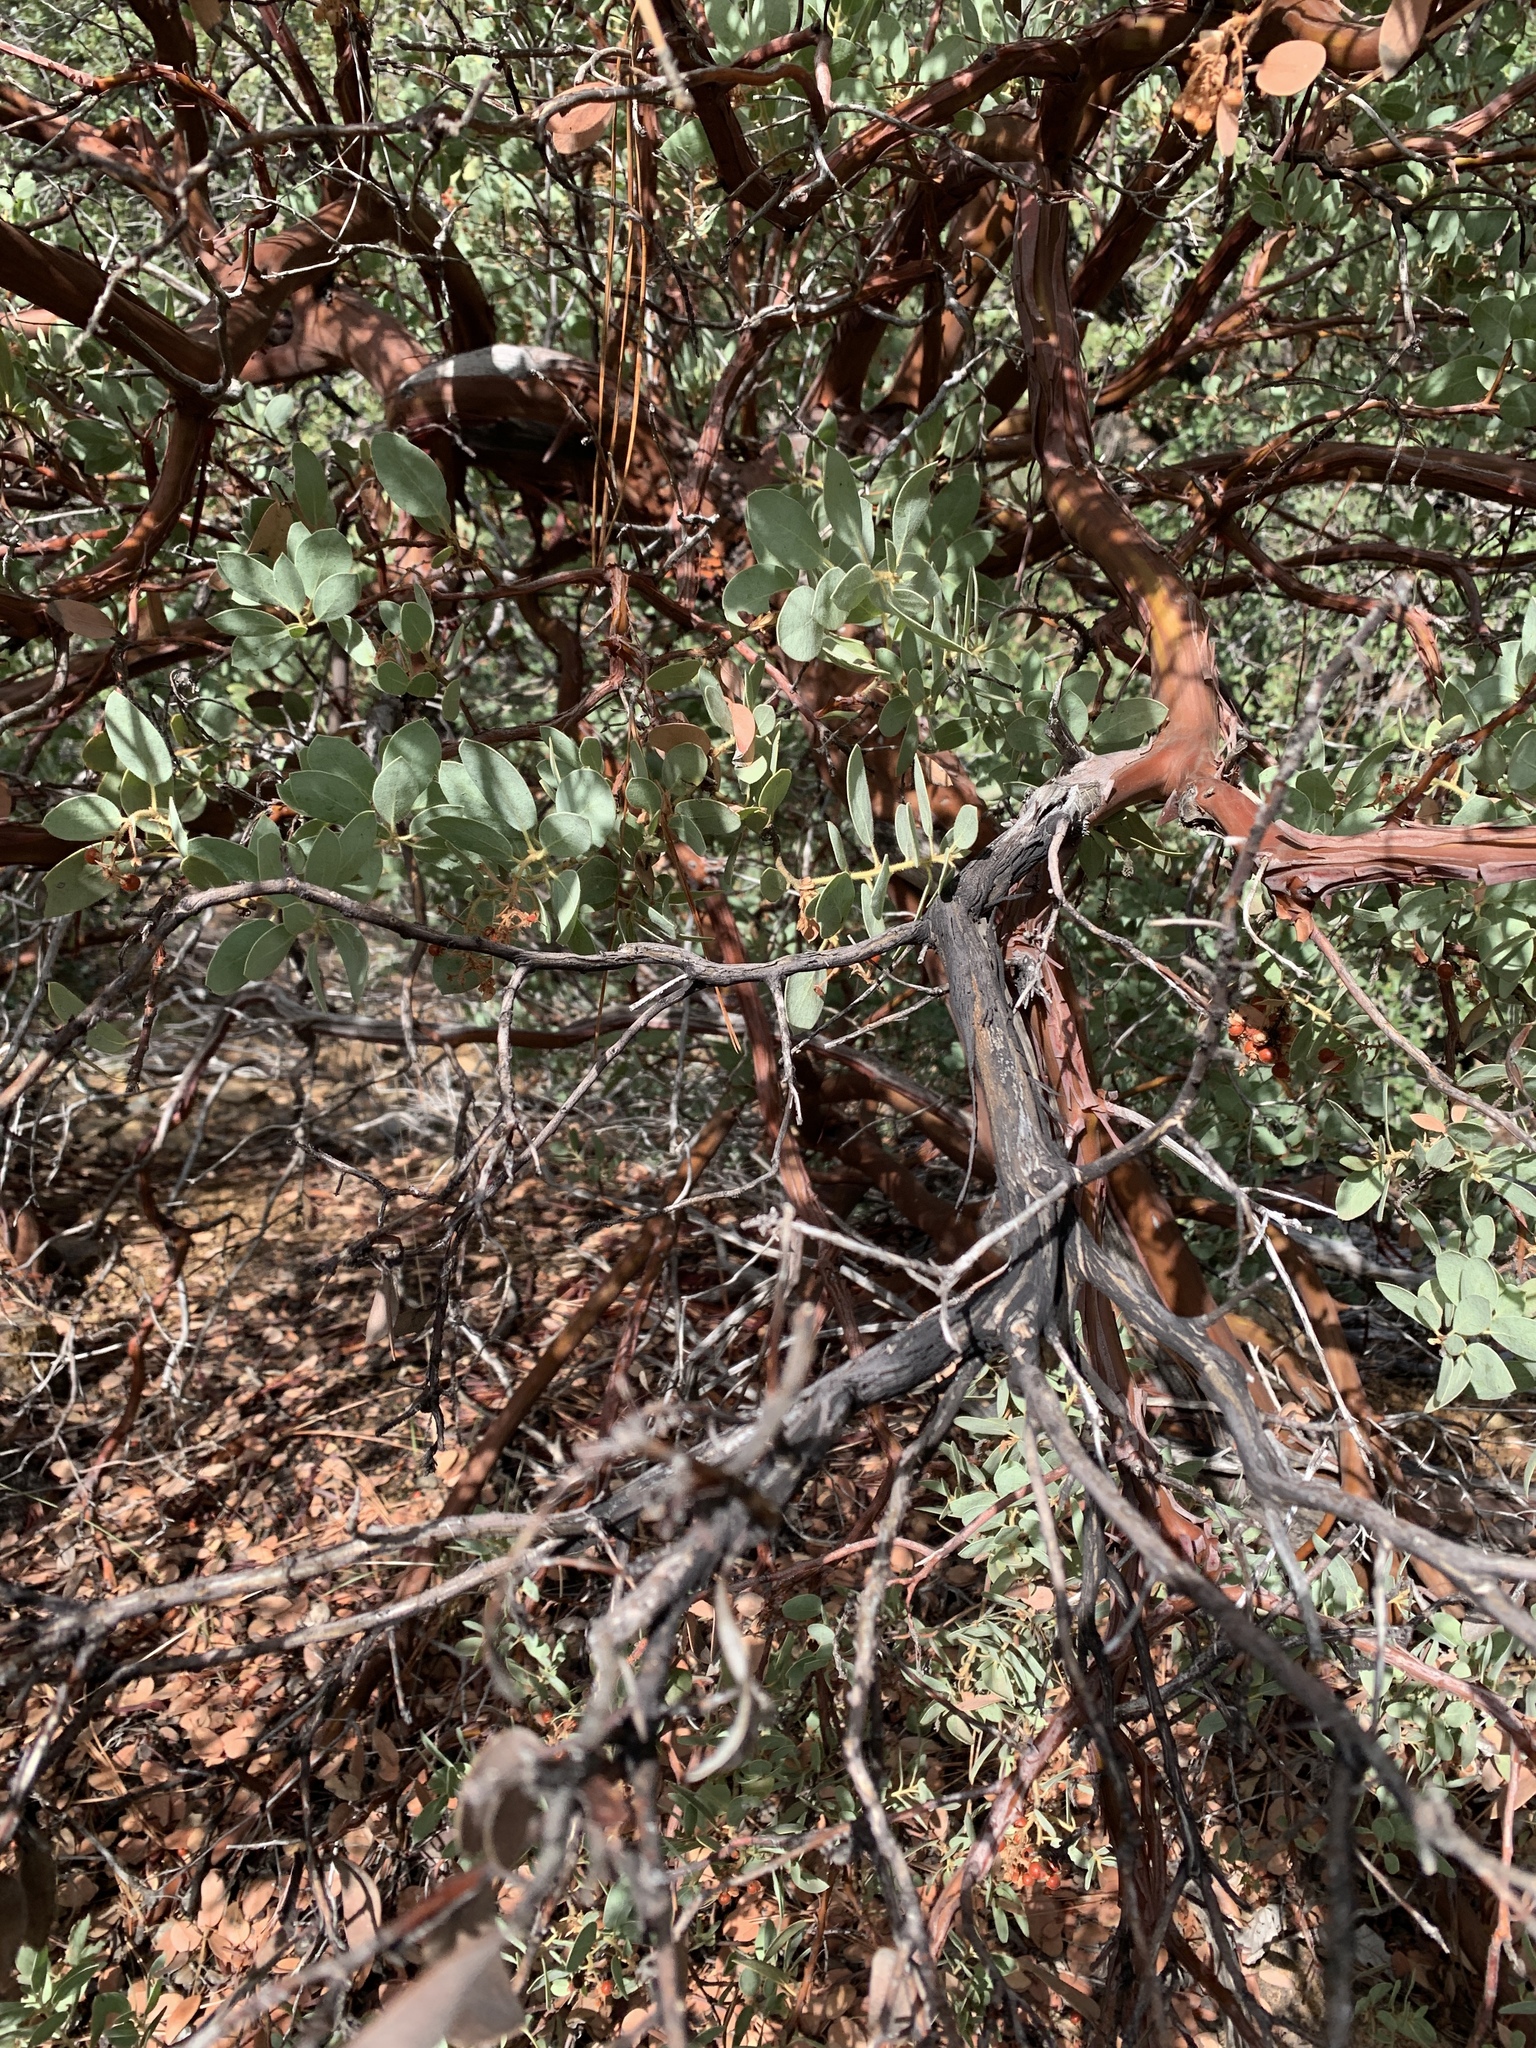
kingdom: Plantae
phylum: Tracheophyta
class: Magnoliopsida
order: Ericales
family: Ericaceae
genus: Arctostaphylos
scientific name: Arctostaphylos pringlei
